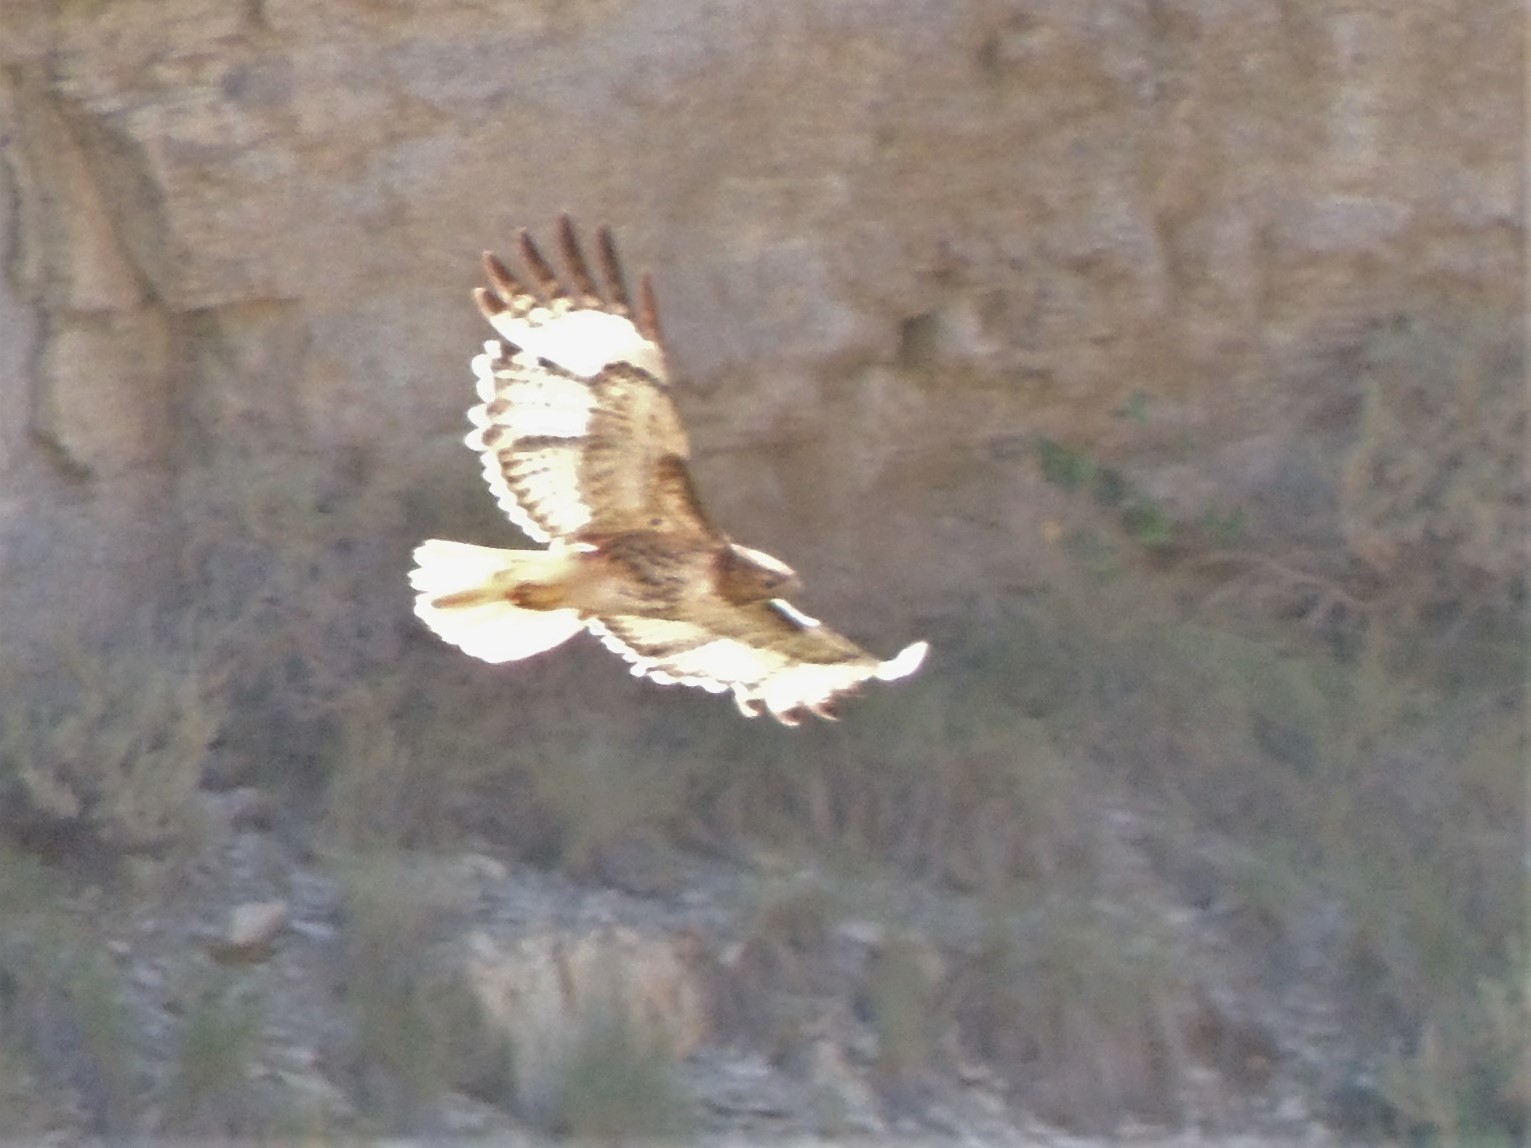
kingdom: Animalia
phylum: Chordata
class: Aves
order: Accipitriformes
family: Accipitridae
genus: Buteo
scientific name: Buteo jamaicensis
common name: Red-tailed hawk
